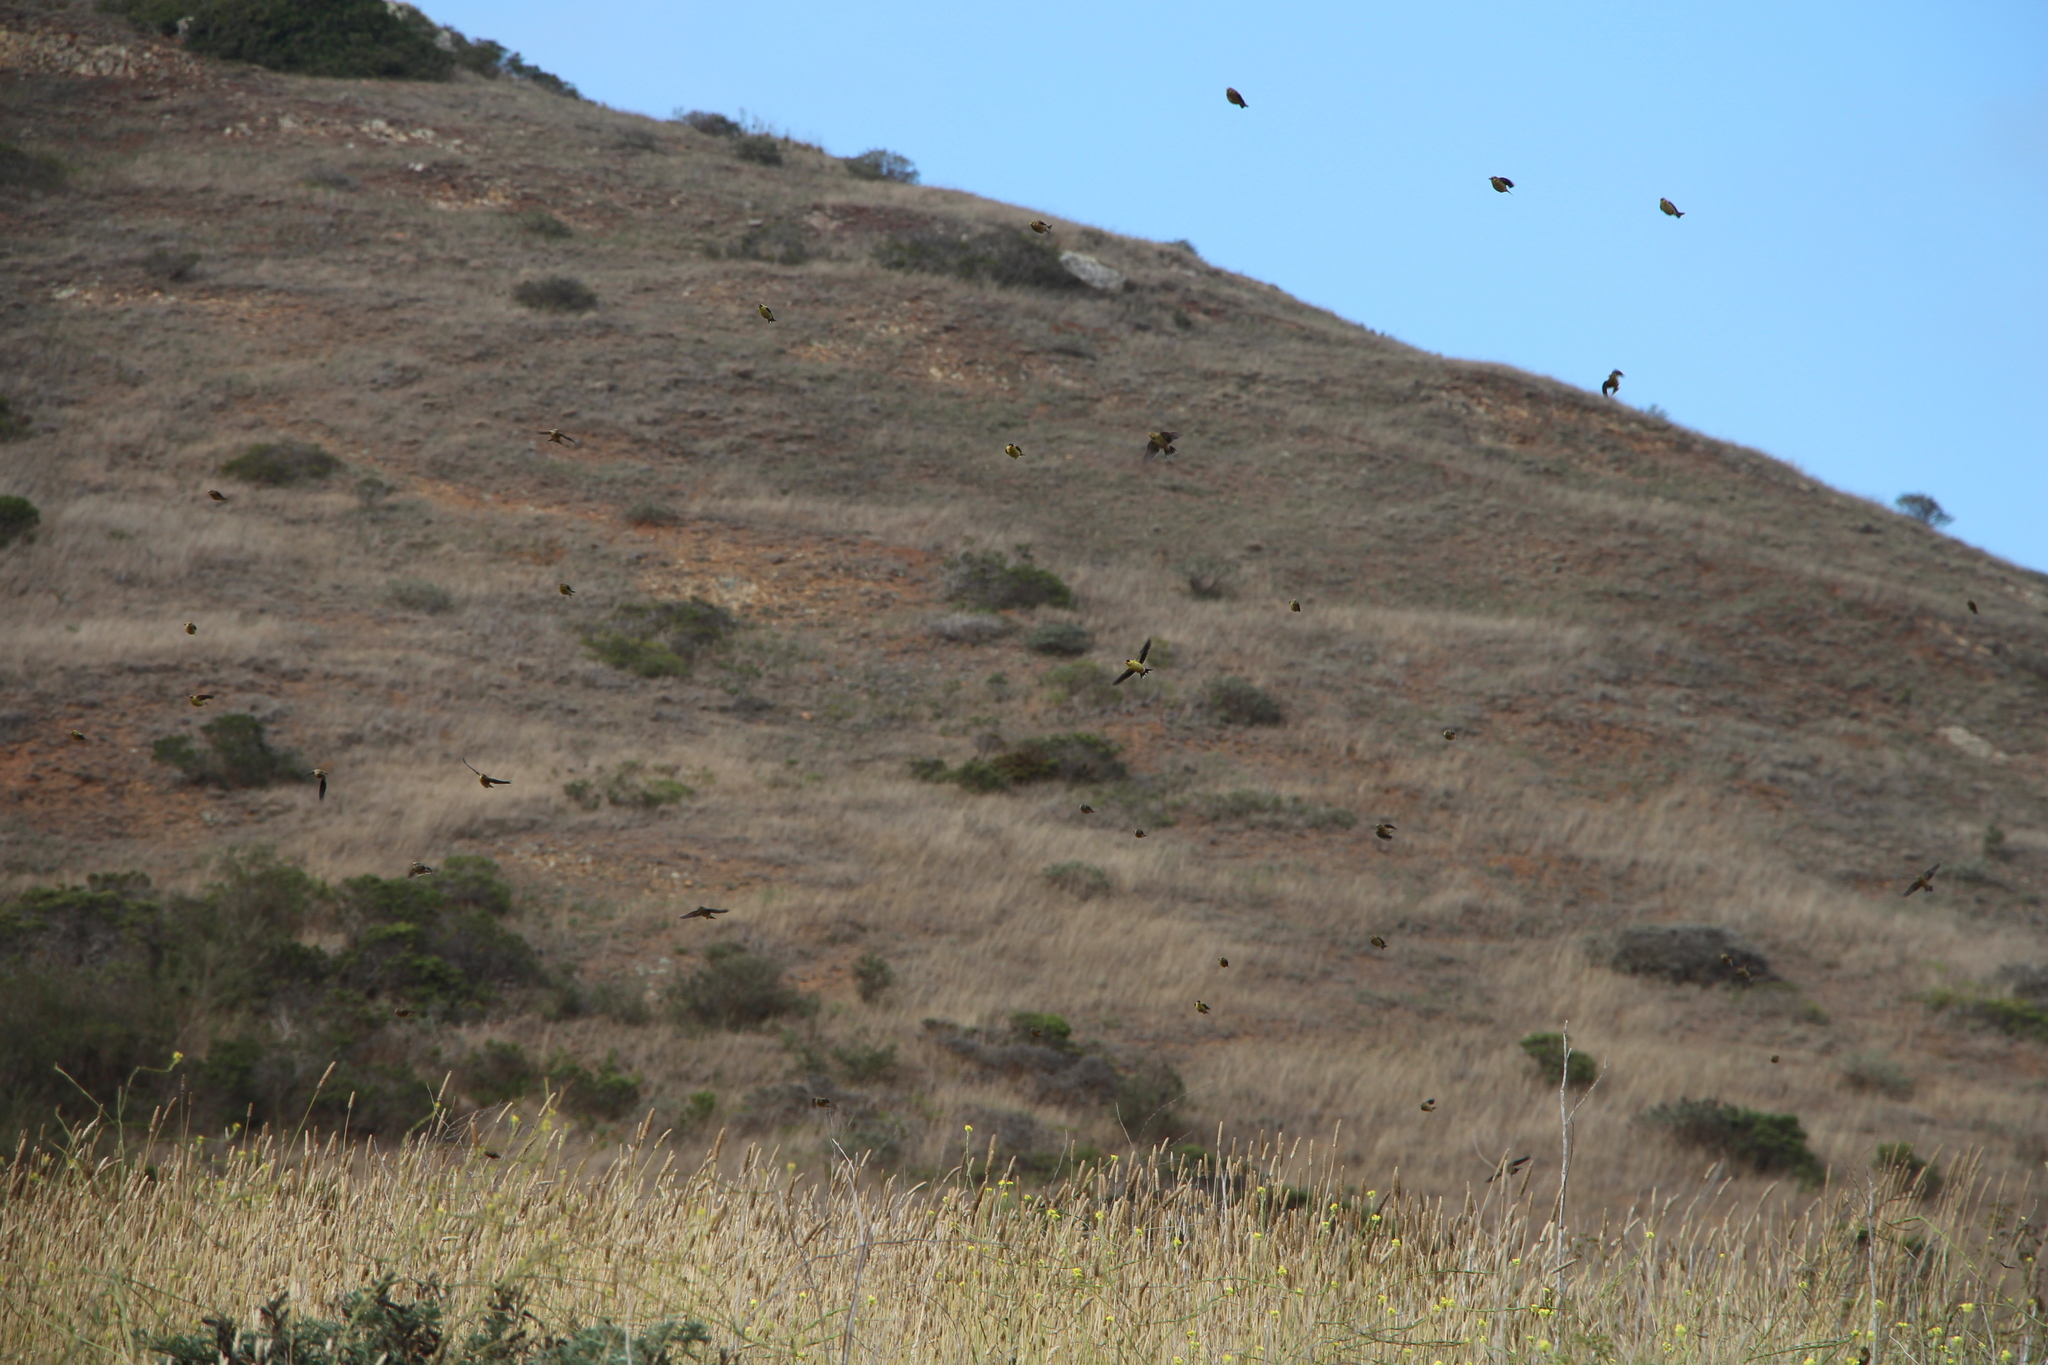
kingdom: Animalia
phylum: Chordata
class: Aves
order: Passeriformes
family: Fringillidae
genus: Spinus
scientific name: Spinus tristis
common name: American goldfinch
